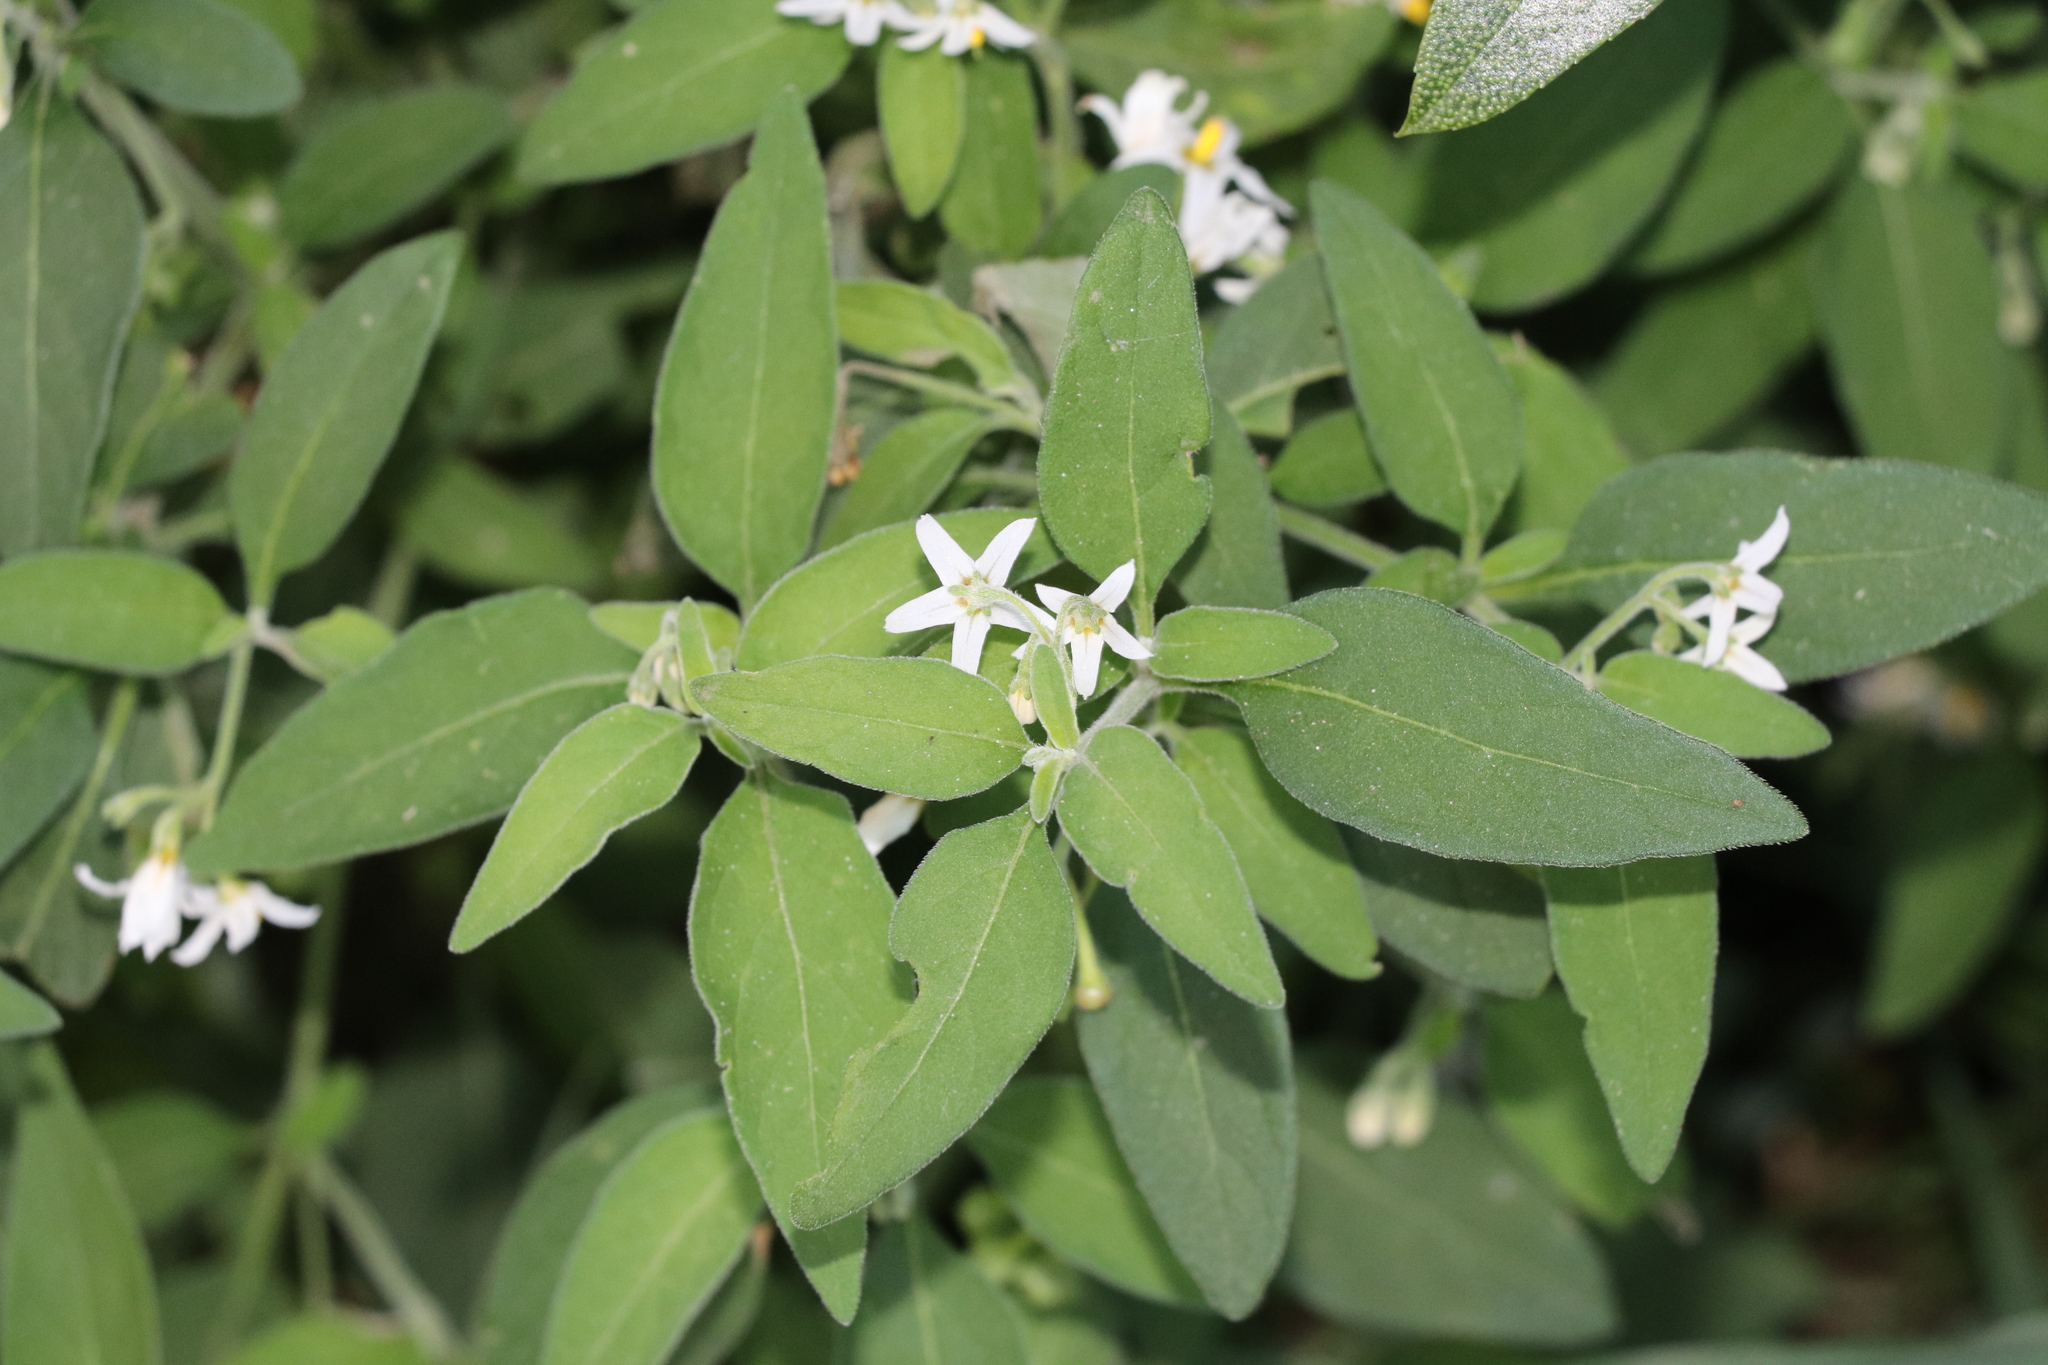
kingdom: Plantae
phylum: Tracheophyta
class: Magnoliopsida
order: Solanales
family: Solanaceae
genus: Solanum
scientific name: Solanum chenopodioides
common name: Tall nightshade
